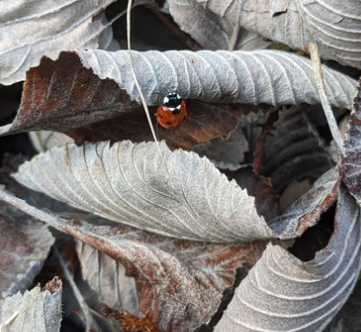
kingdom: Animalia
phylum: Arthropoda
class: Insecta
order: Coleoptera
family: Coccinellidae
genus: Coccinella
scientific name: Coccinella septempunctata
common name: Sevenspotted lady beetle
